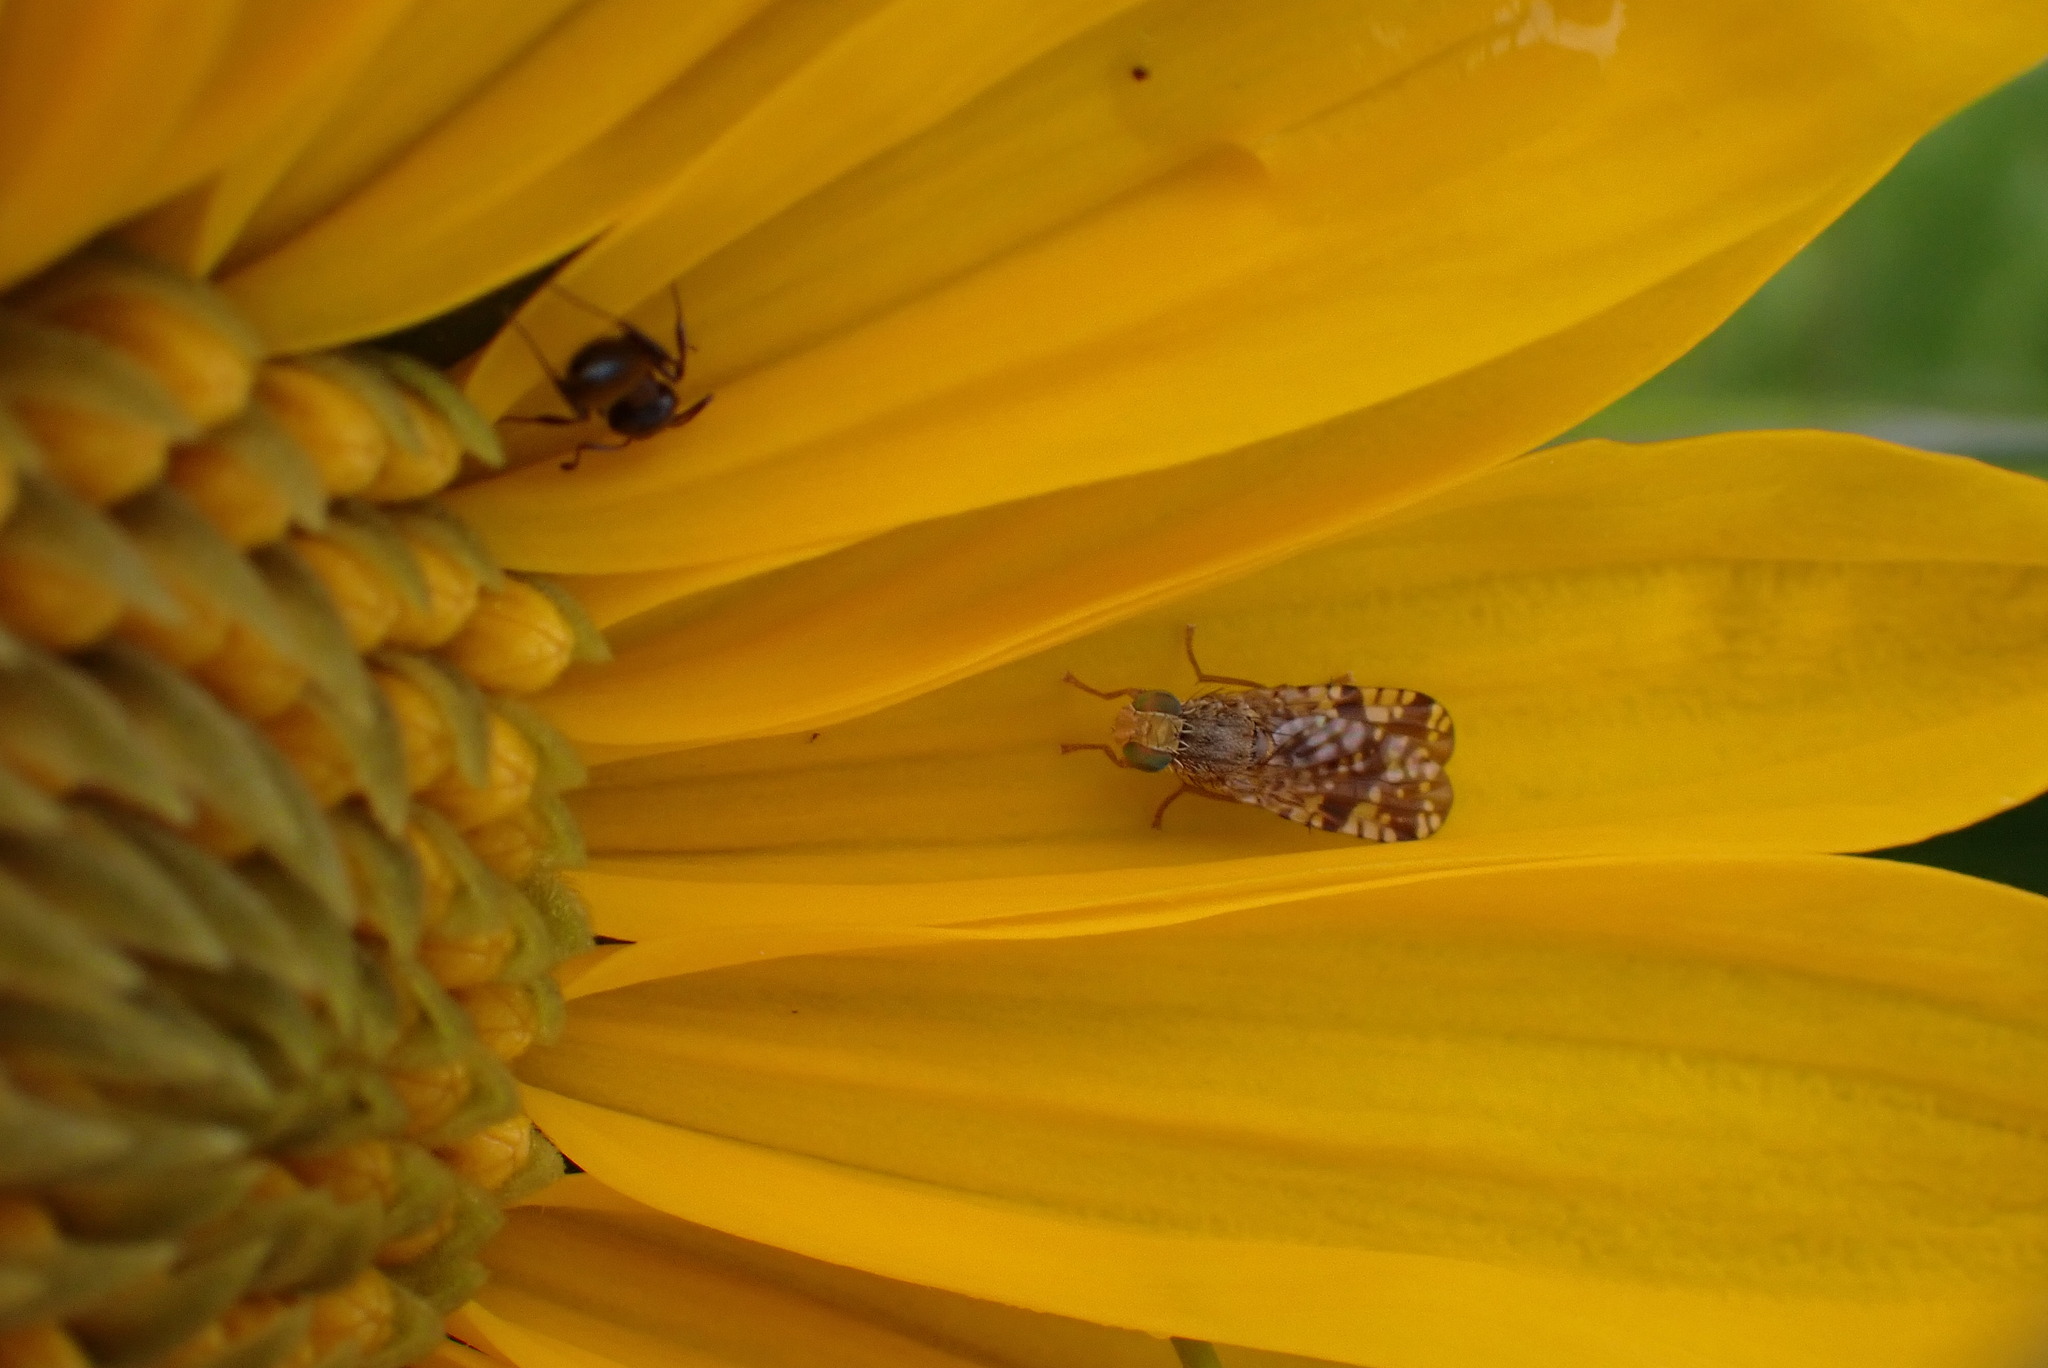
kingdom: Animalia
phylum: Arthropoda
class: Insecta
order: Diptera
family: Tephritidae
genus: Neotephritis
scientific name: Neotephritis finalis
